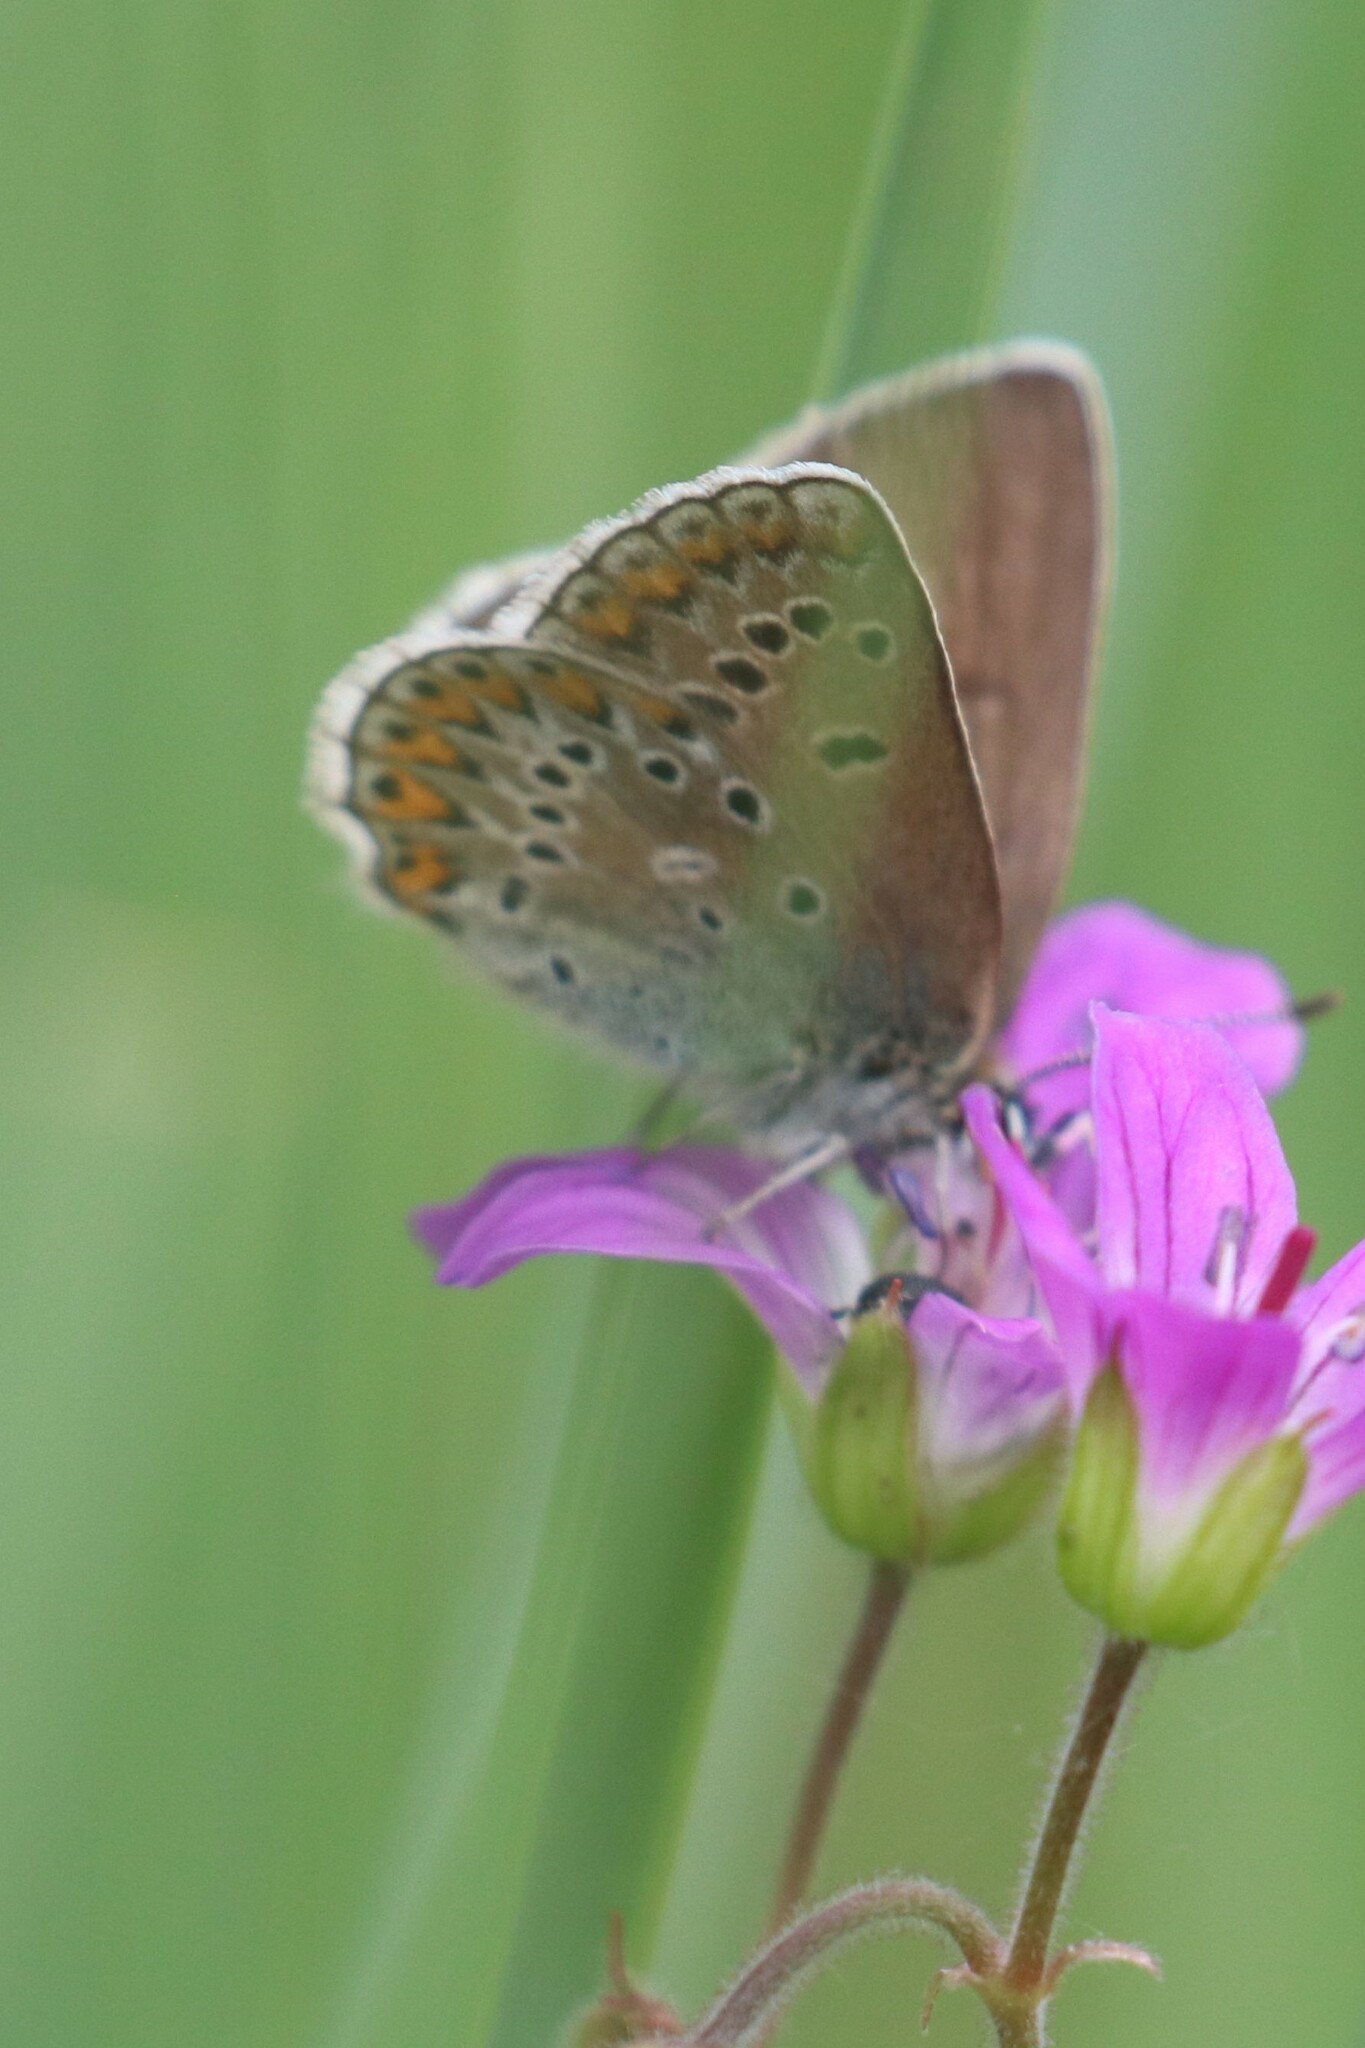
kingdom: Animalia
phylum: Arthropoda
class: Insecta
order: Lepidoptera
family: Lycaenidae
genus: Plebejus
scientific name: Plebejus amanda
